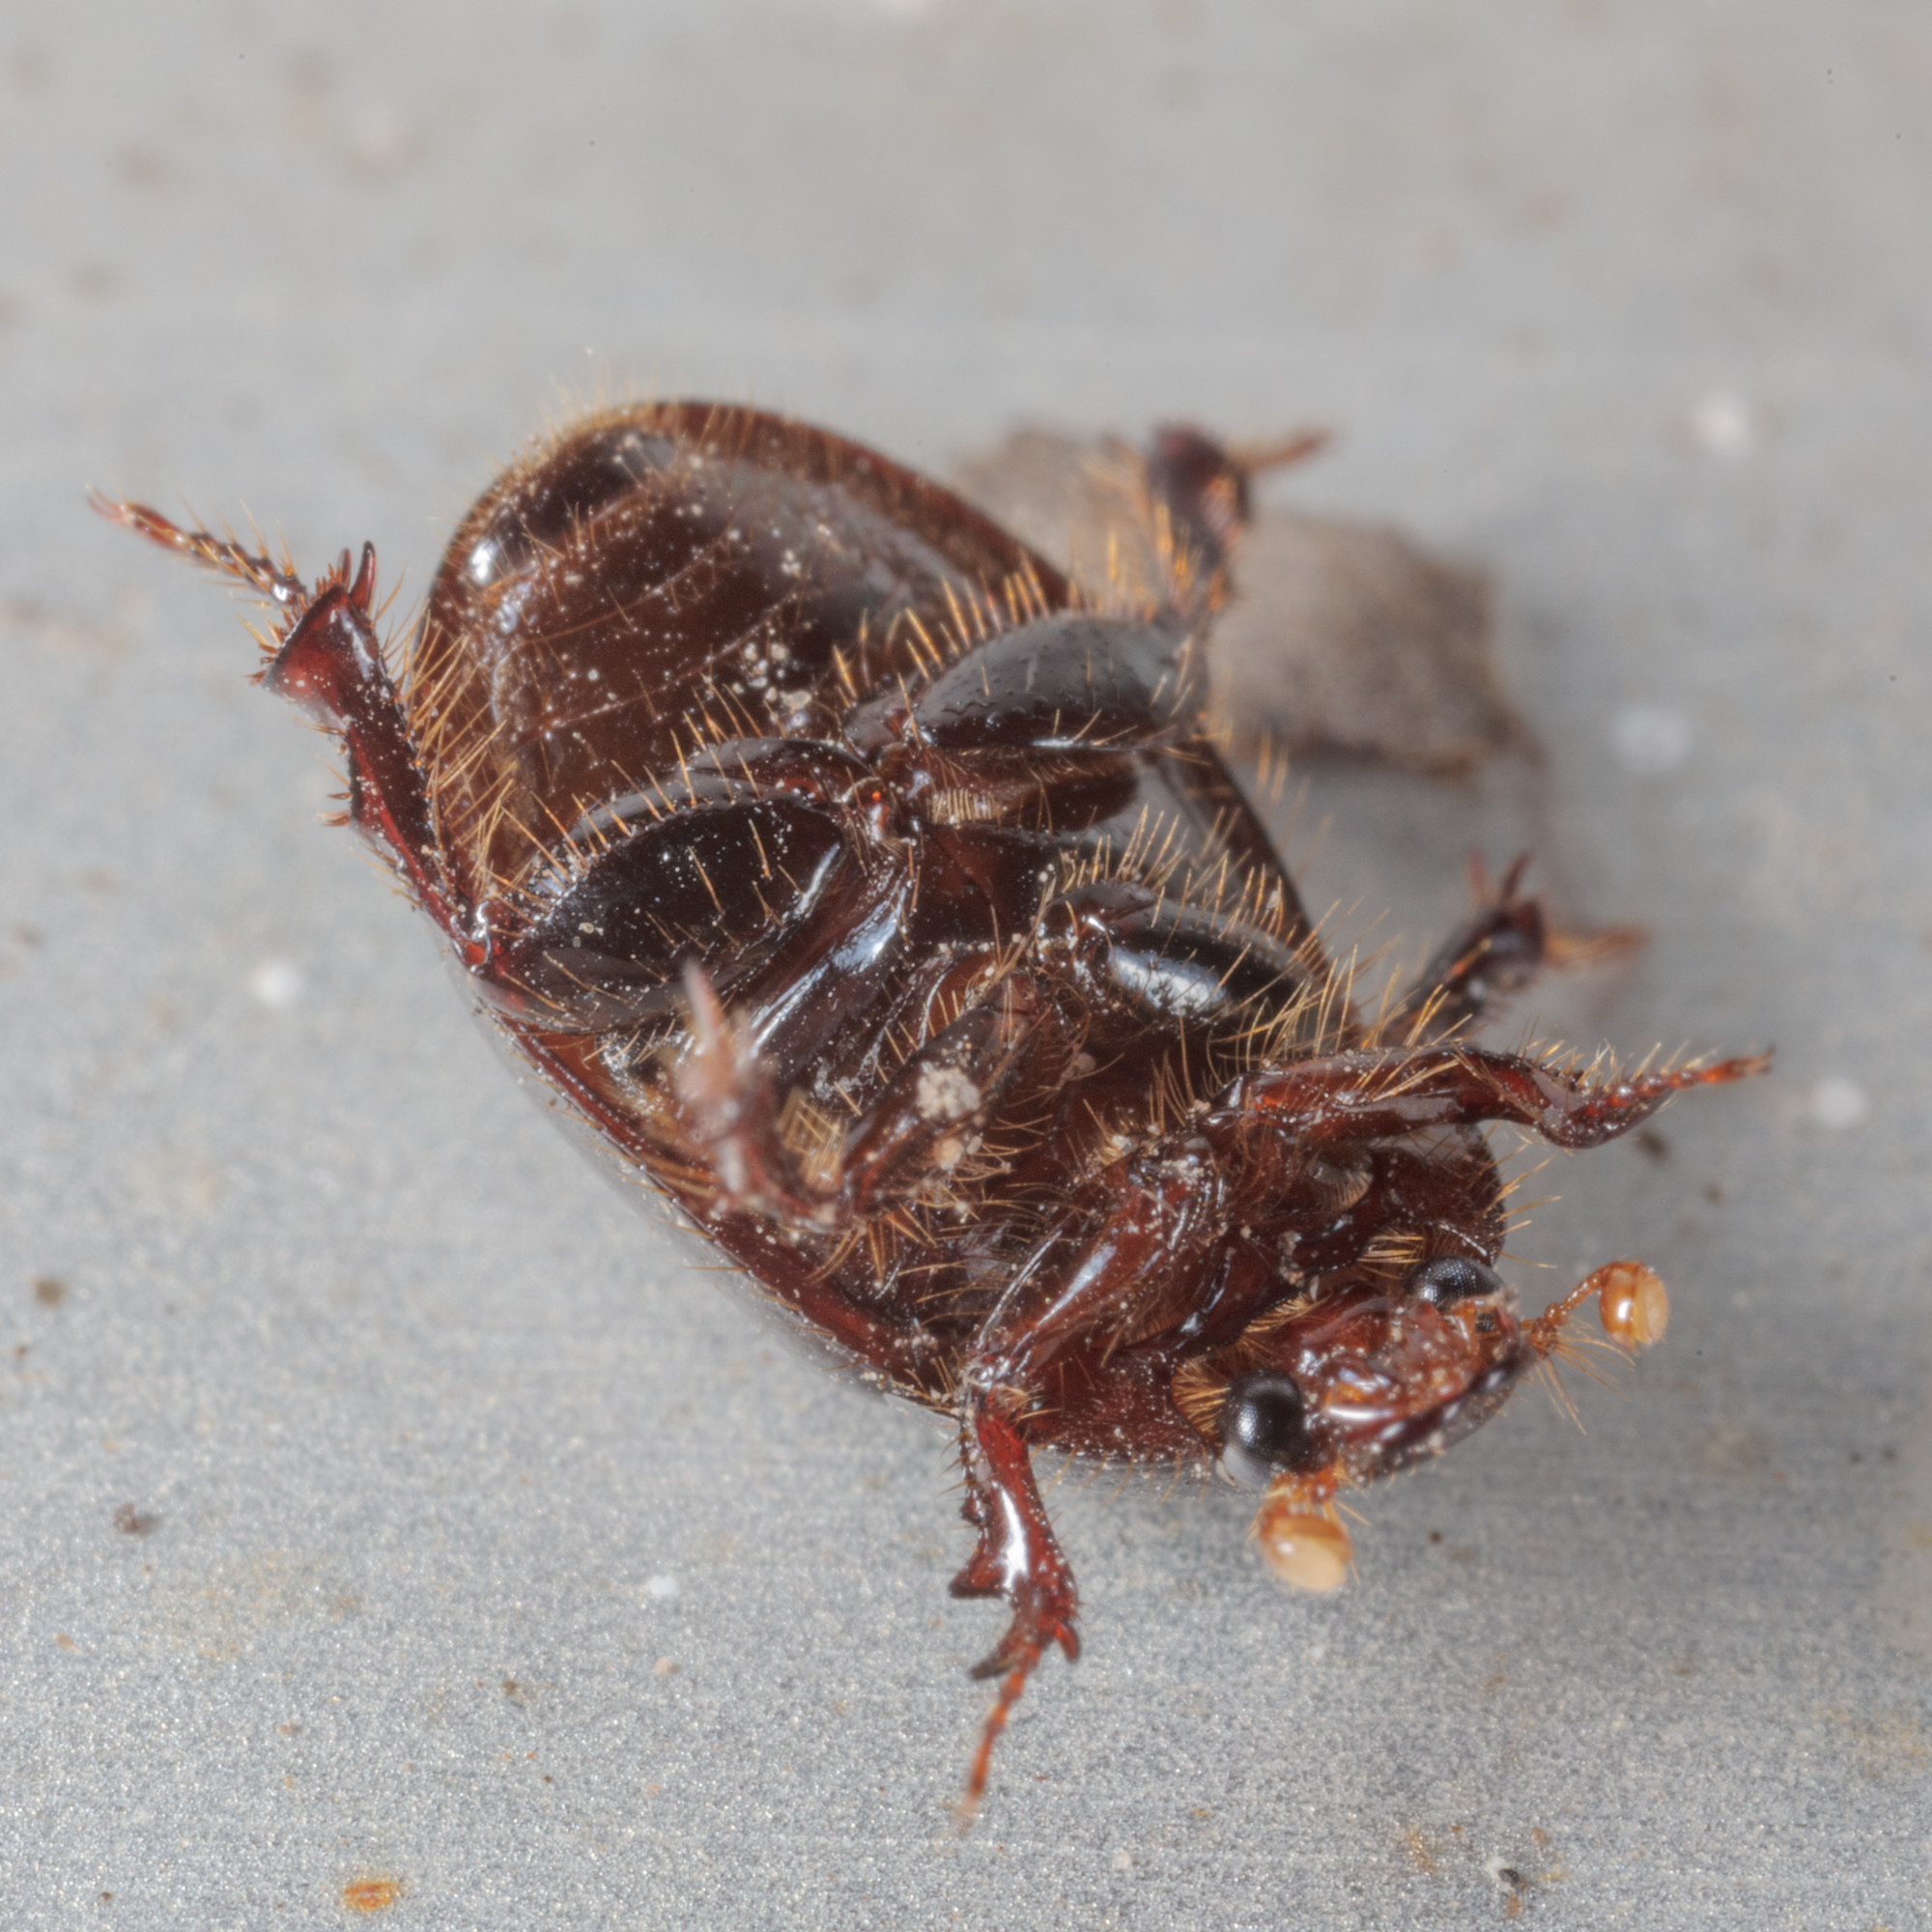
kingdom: Animalia
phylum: Arthropoda
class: Insecta
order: Coleoptera
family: Hybosoridae
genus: Hybosorus
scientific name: Hybosorus illigeri
